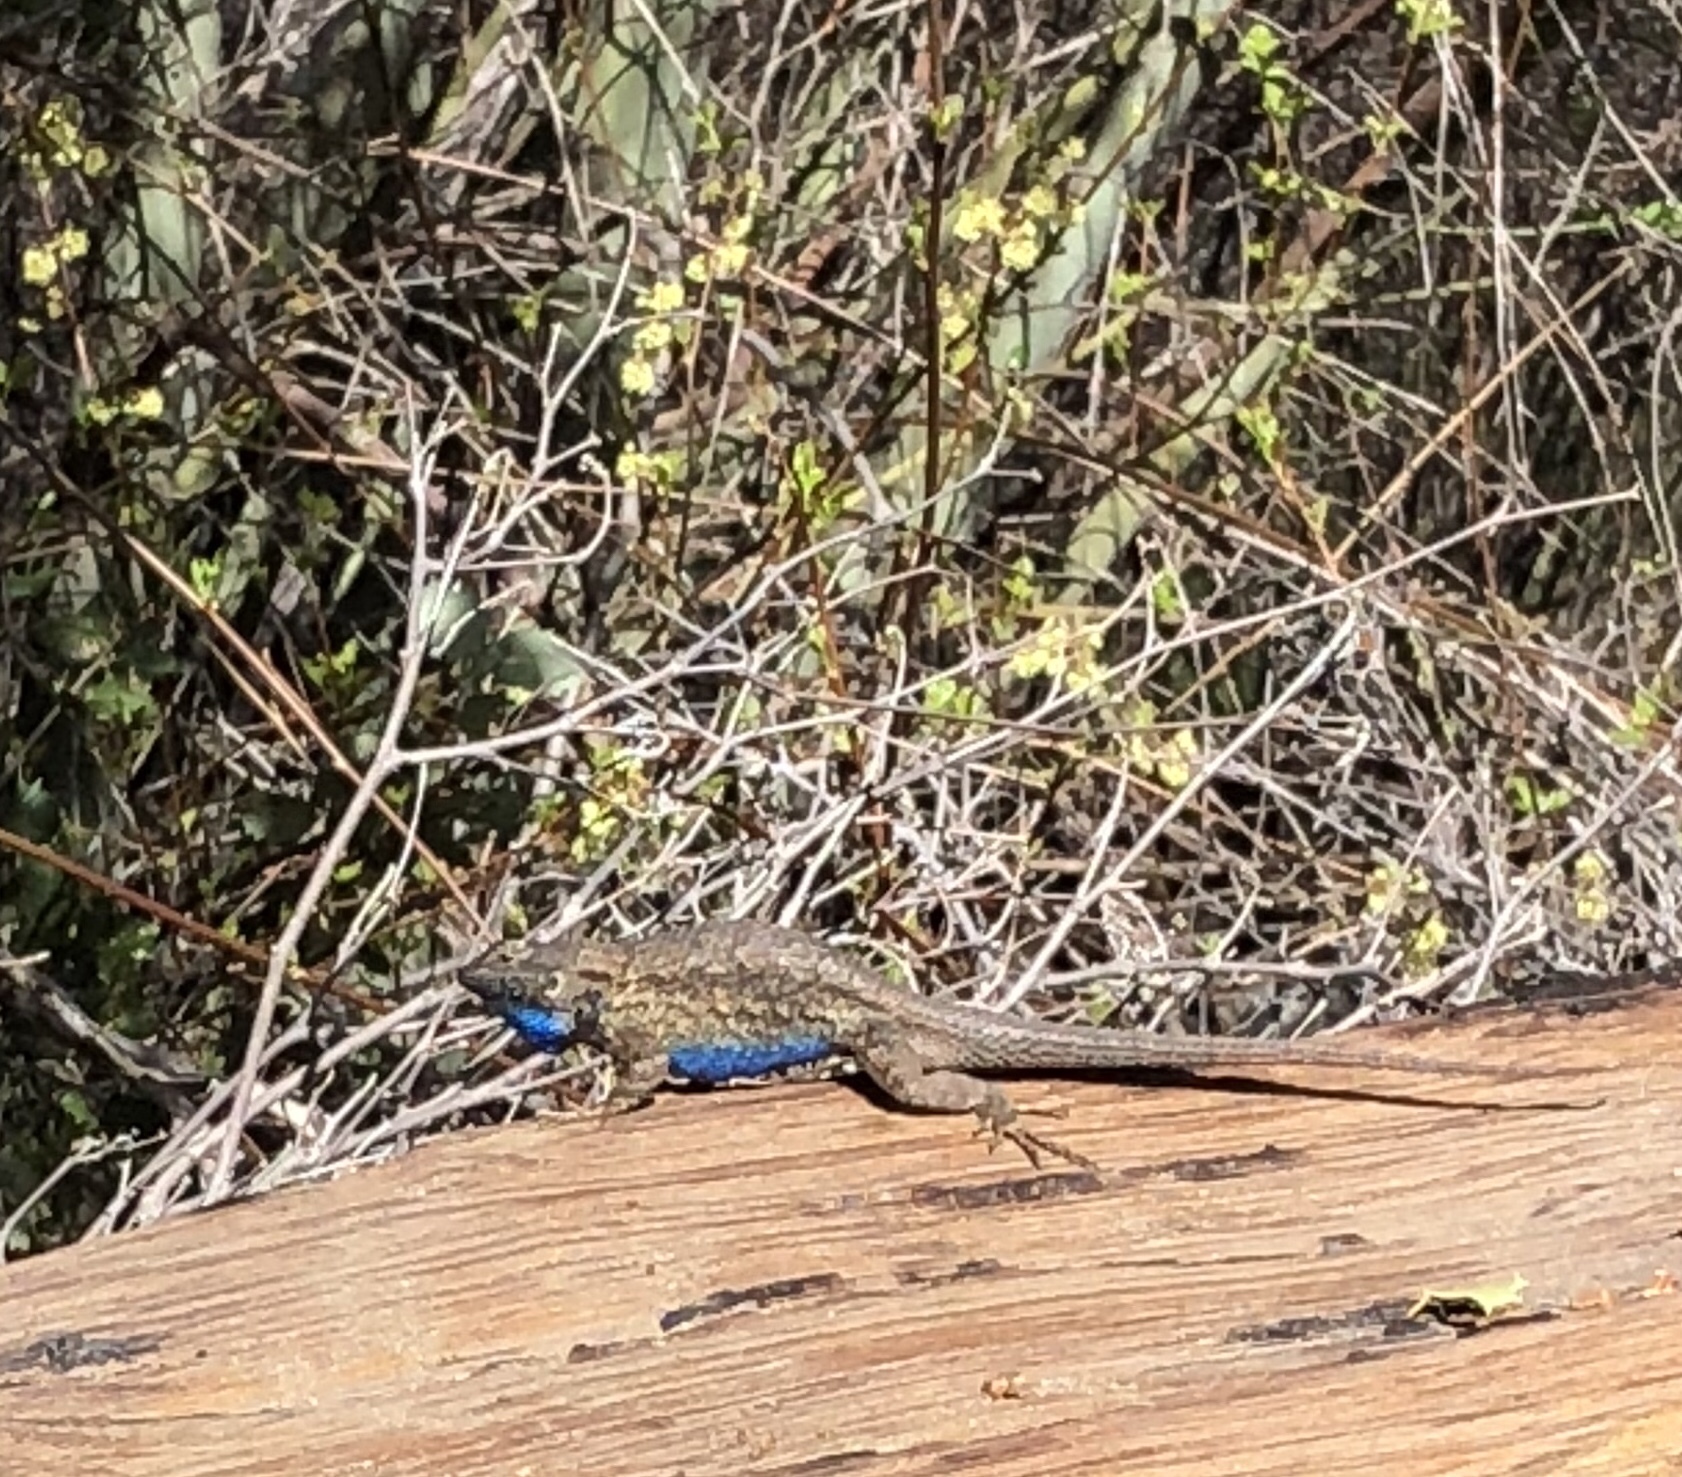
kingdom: Animalia
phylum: Chordata
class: Squamata
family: Phrynosomatidae
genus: Sceloporus
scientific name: Sceloporus occidentalis
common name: Western fence lizard
